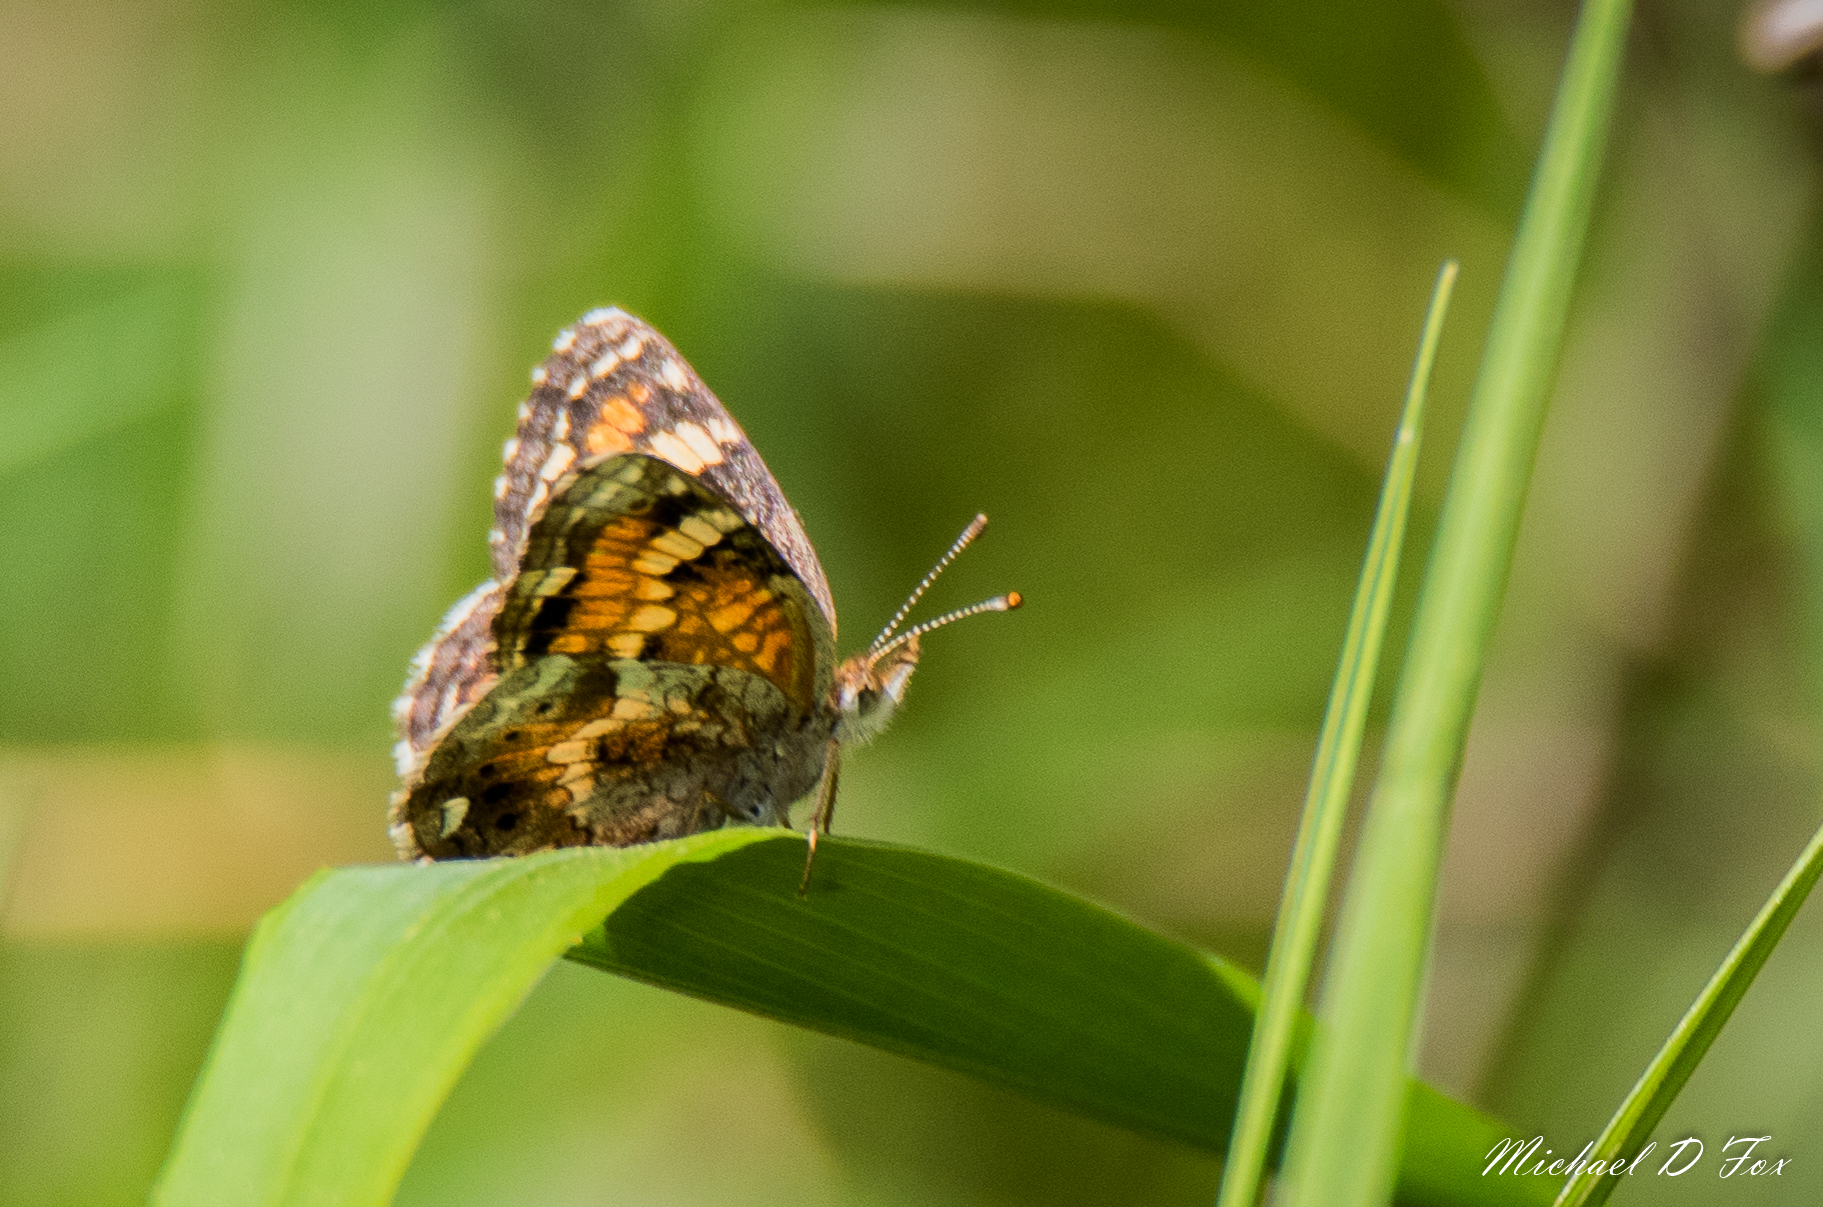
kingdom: Animalia
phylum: Arthropoda
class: Insecta
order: Lepidoptera
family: Nymphalidae
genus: Phyciodes
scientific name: Phyciodes phaon
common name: Phaon crescent
